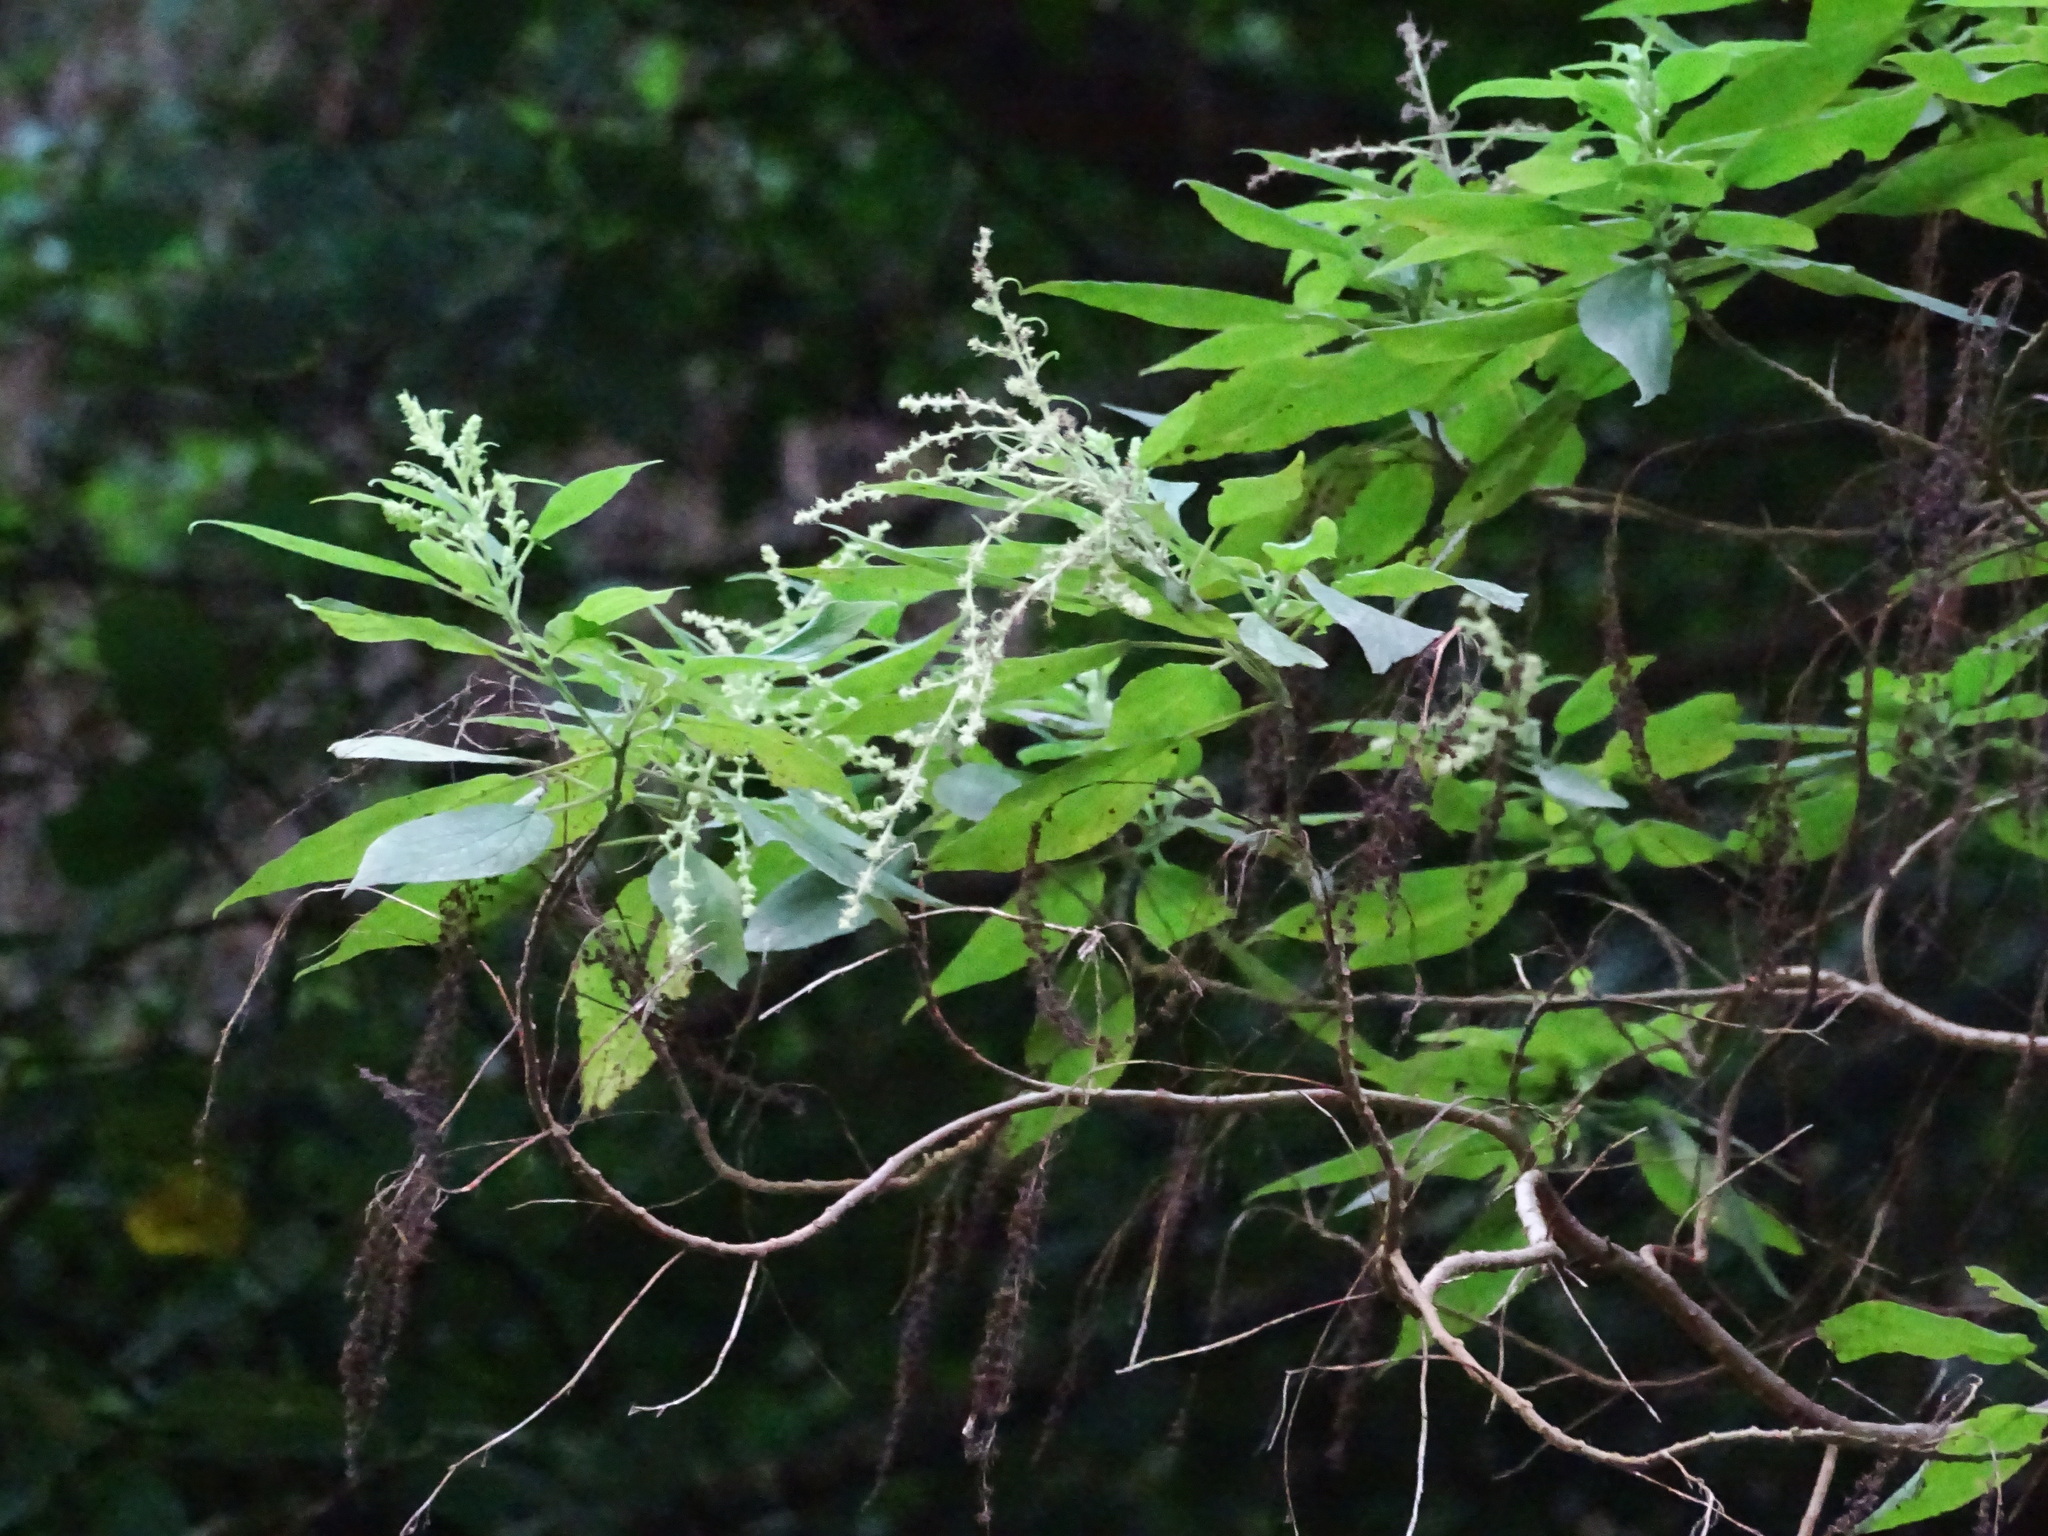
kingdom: Plantae
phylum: Tracheophyta
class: Magnoliopsida
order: Rosales
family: Urticaceae
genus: Gesnouinia
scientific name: Gesnouinia arborea
